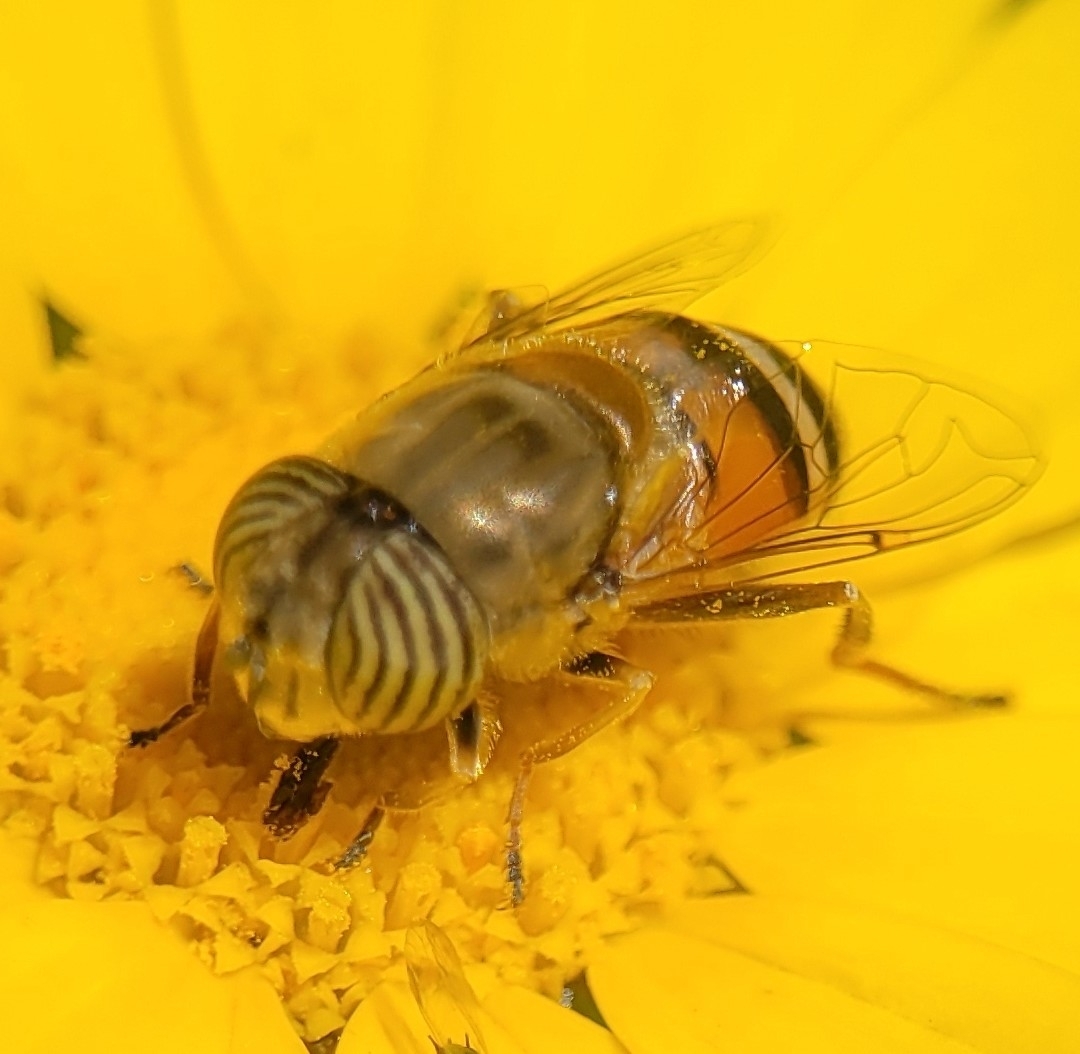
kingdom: Animalia
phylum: Arthropoda
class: Insecta
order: Diptera
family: Syrphidae
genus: Eristalinus
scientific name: Eristalinus taeniops
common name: Syrphid fly
